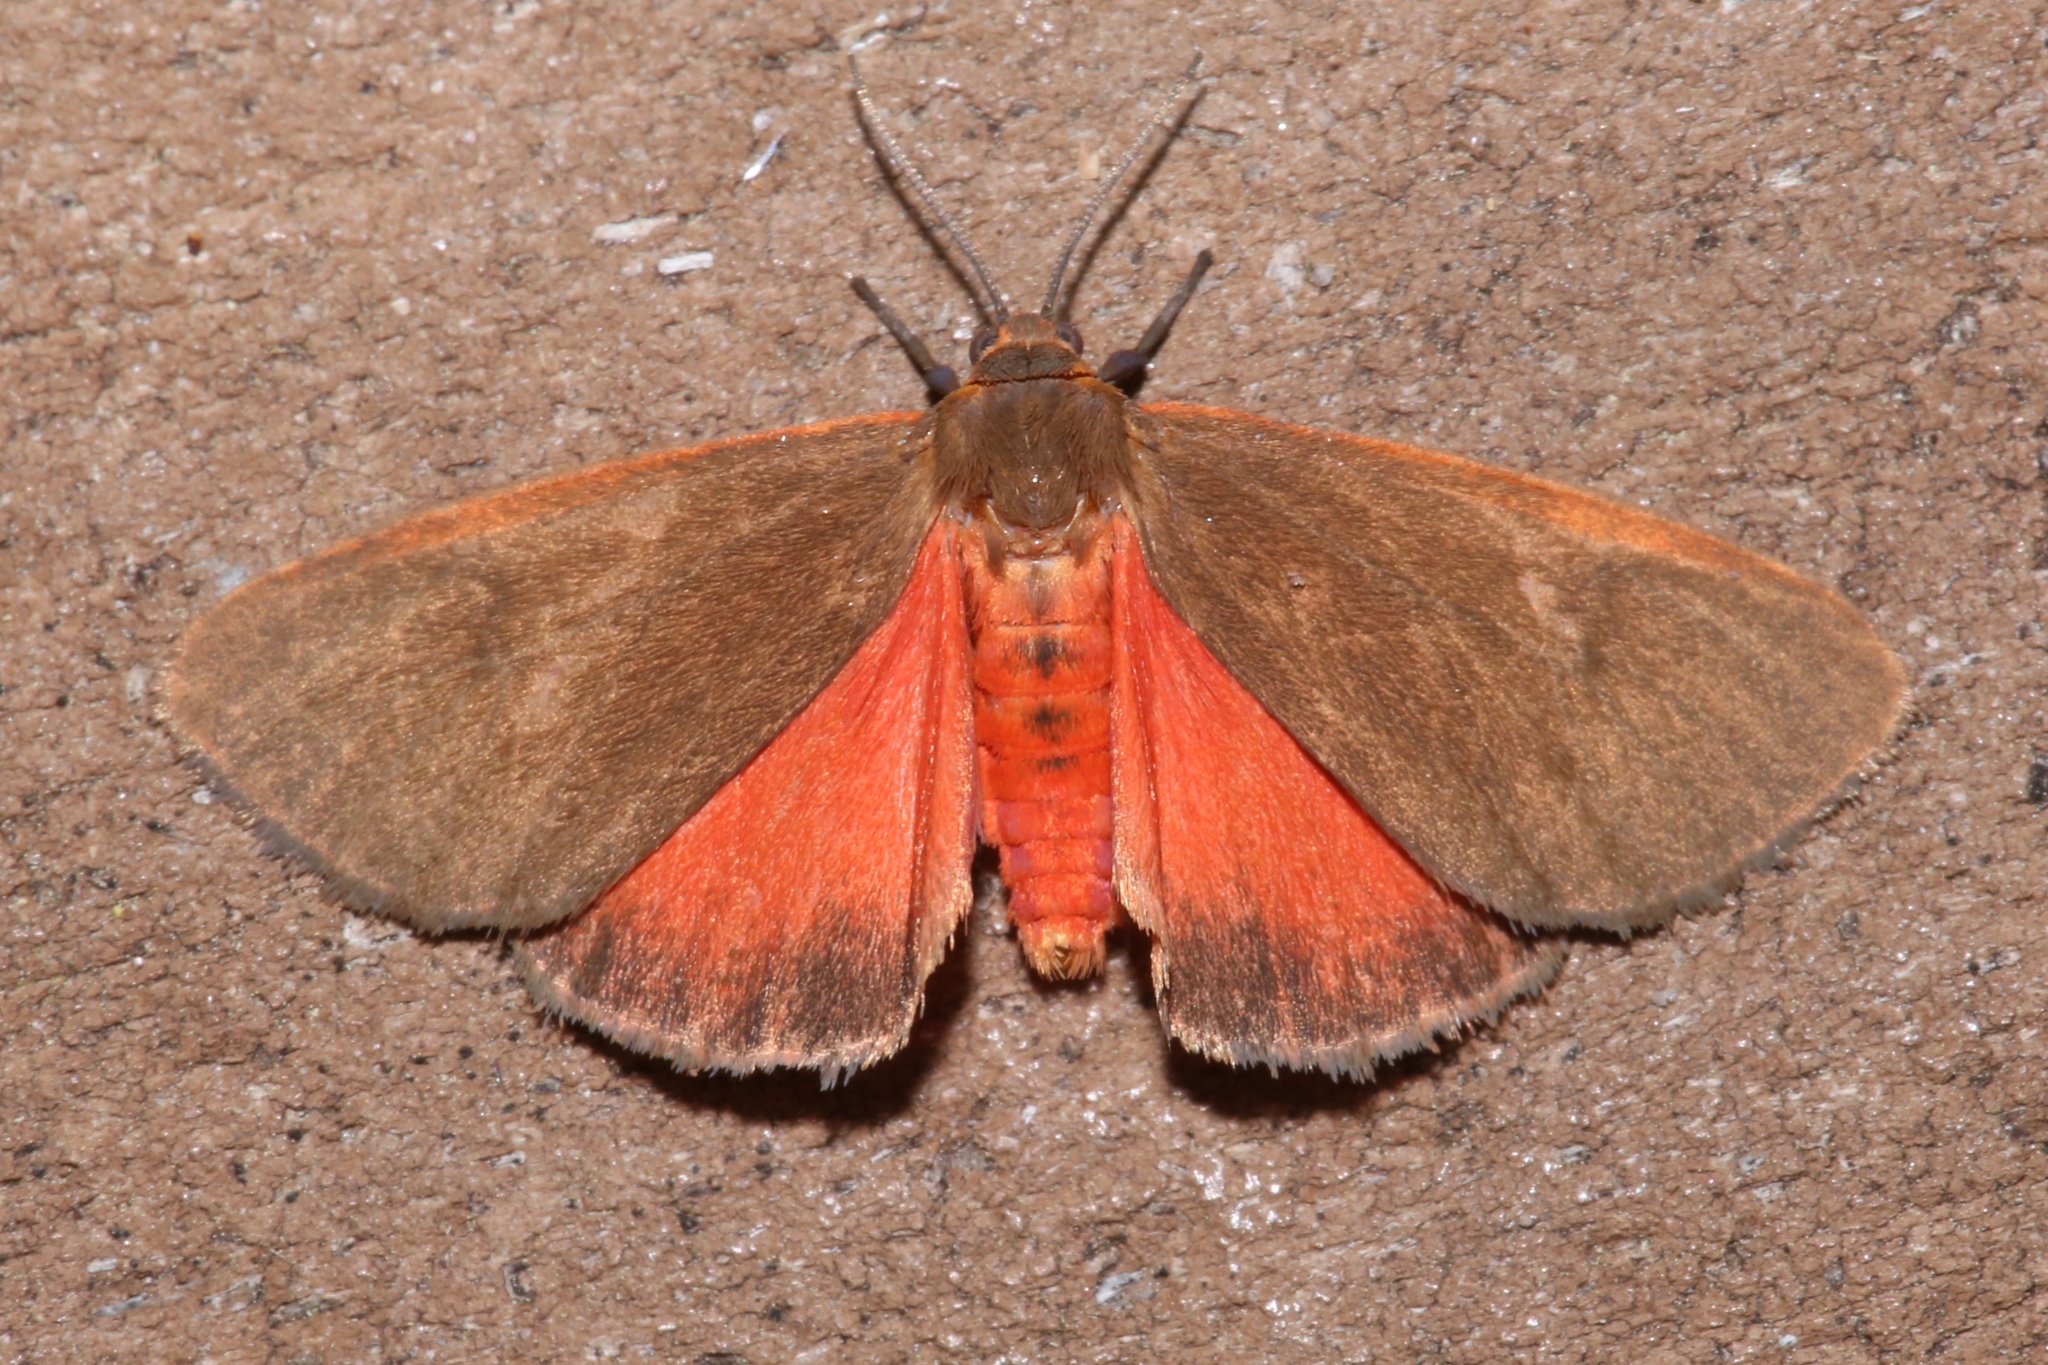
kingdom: Animalia
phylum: Arthropoda
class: Insecta
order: Lepidoptera
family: Erebidae
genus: Virbia
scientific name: Virbia fergusoni
